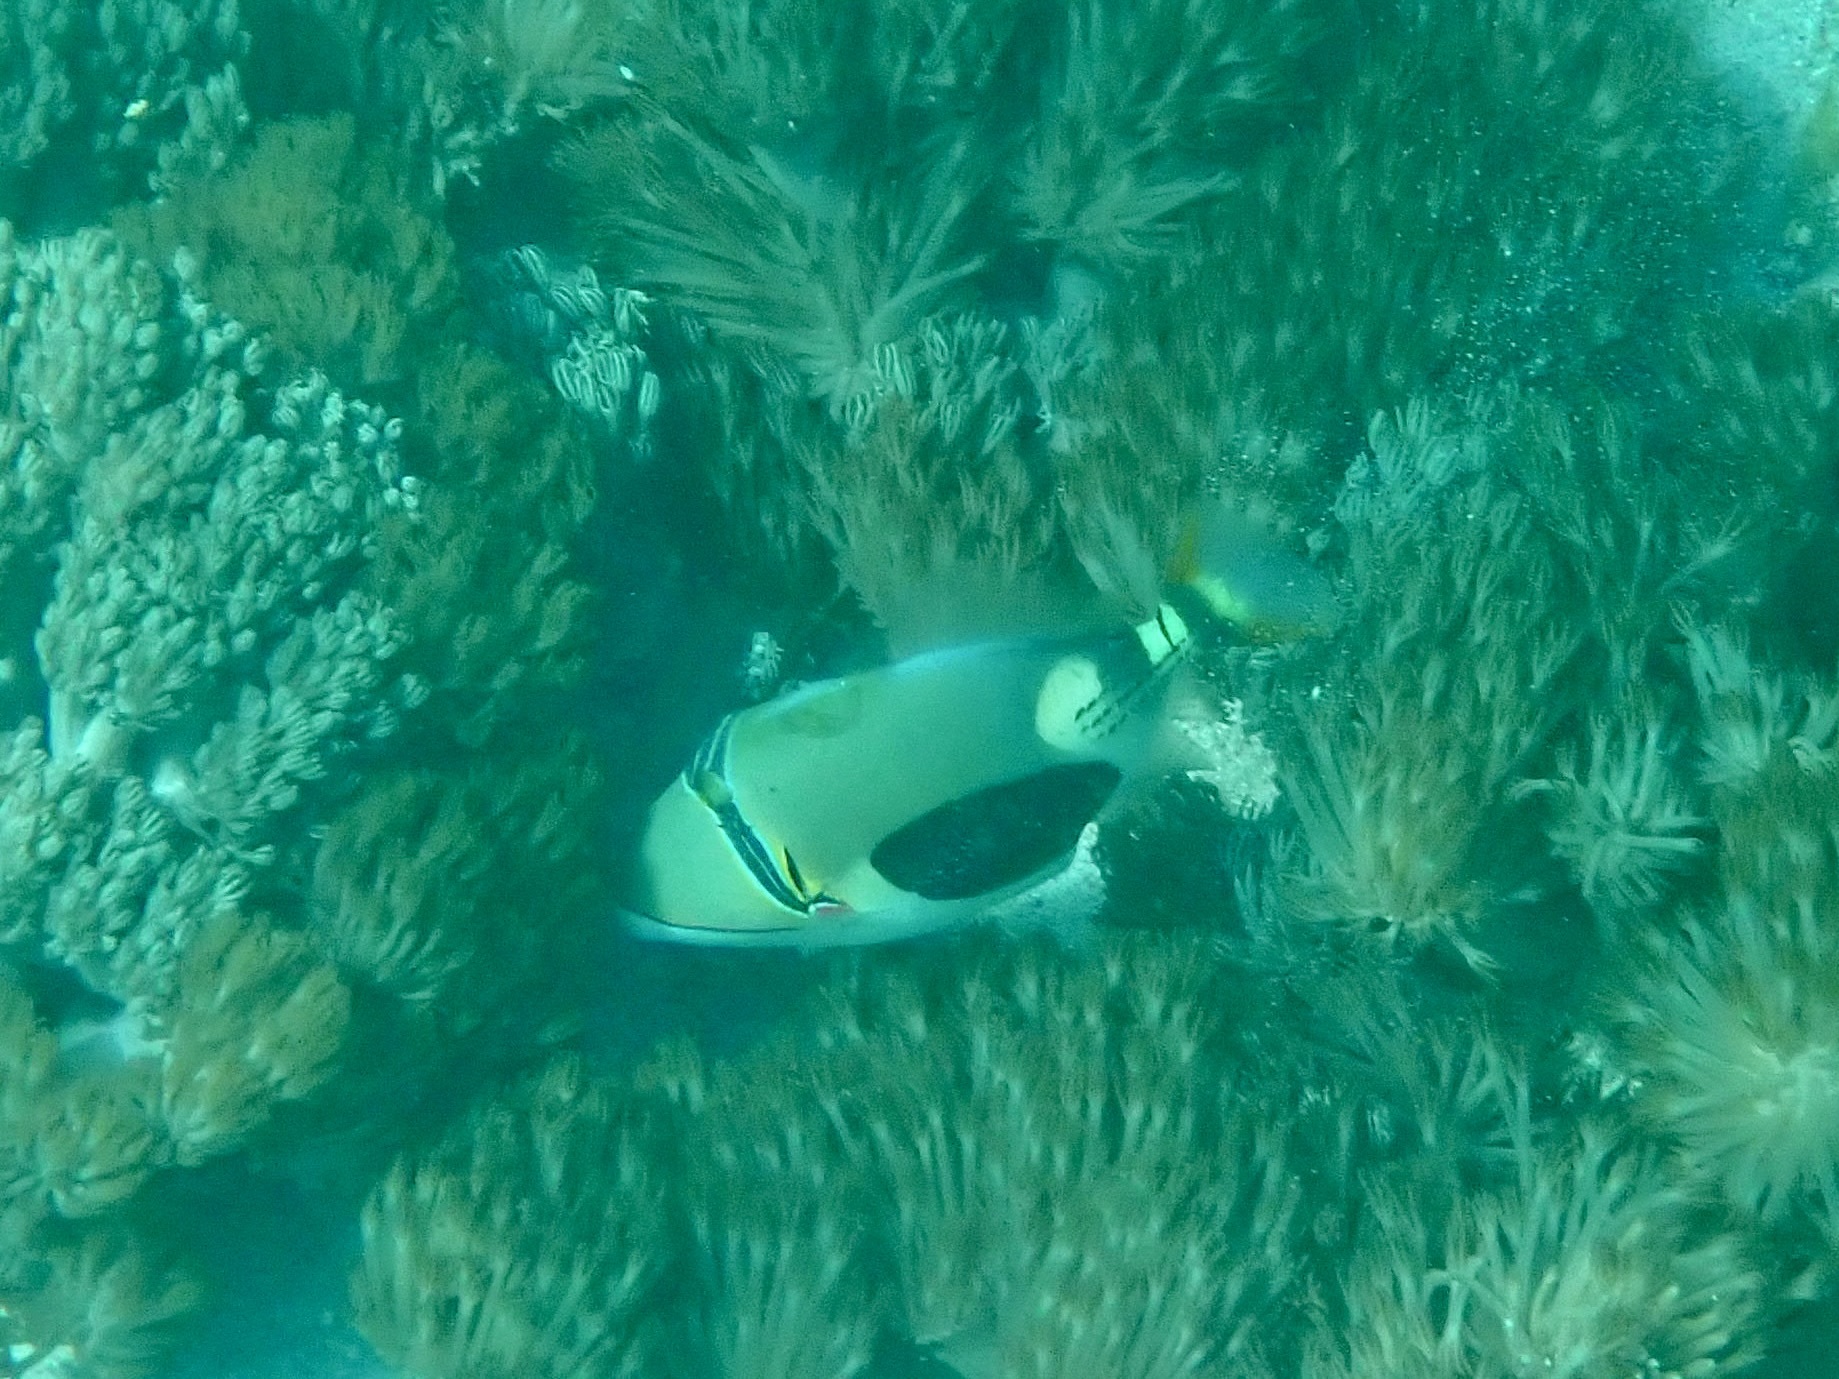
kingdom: Animalia
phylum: Chordata
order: Tetraodontiformes
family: Balistidae
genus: Rhinecanthus
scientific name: Rhinecanthus verrucosus
